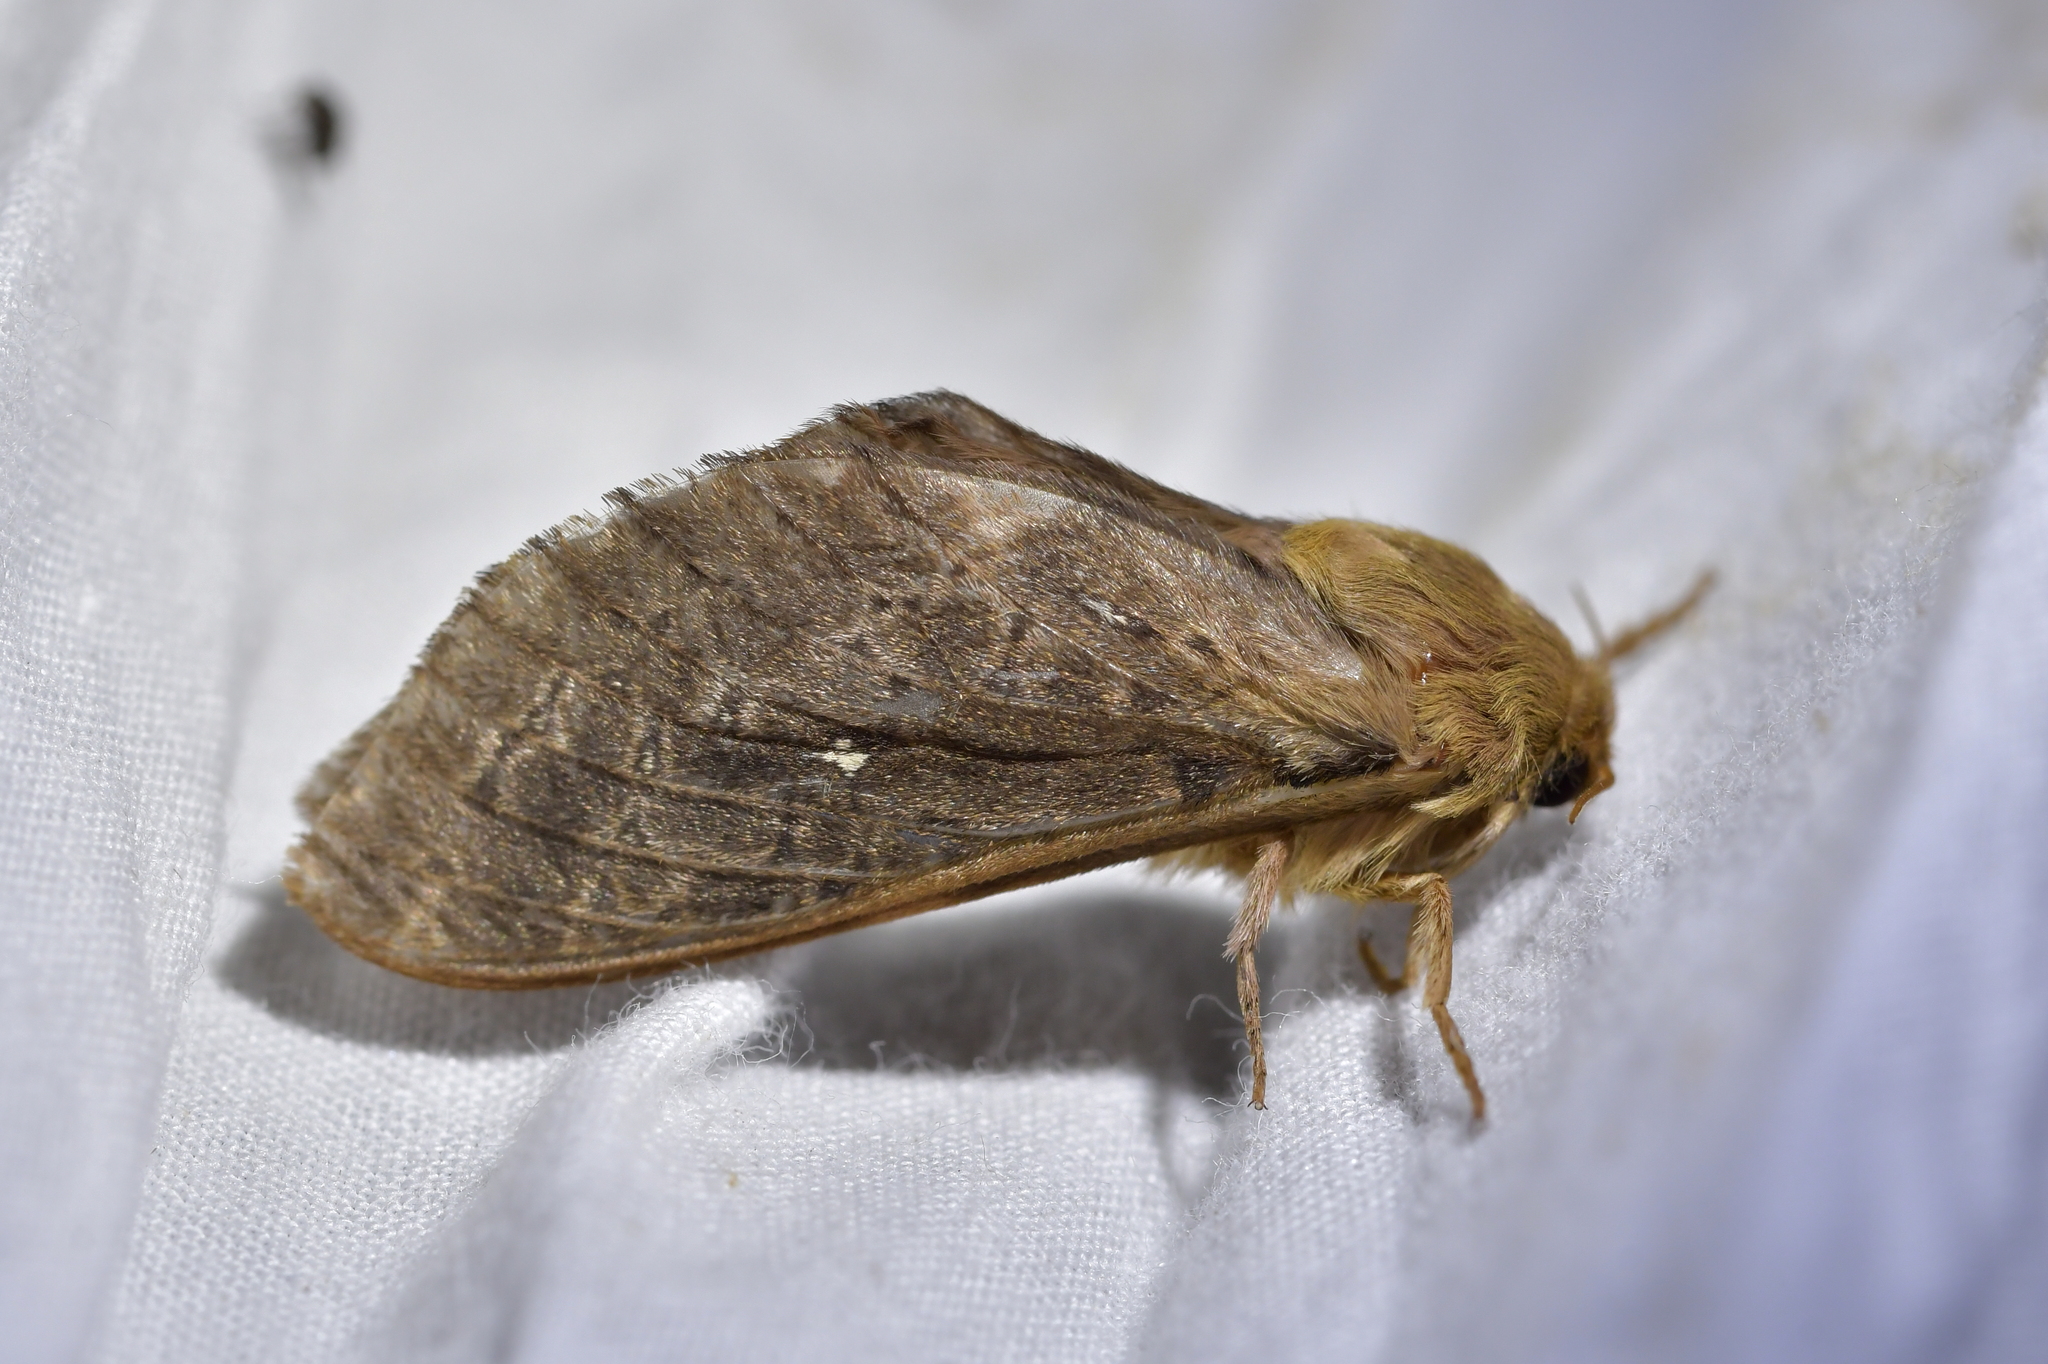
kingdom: Animalia
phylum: Arthropoda
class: Insecta
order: Lepidoptera
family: Hepialidae
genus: Wiseana
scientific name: Wiseana cervinata
